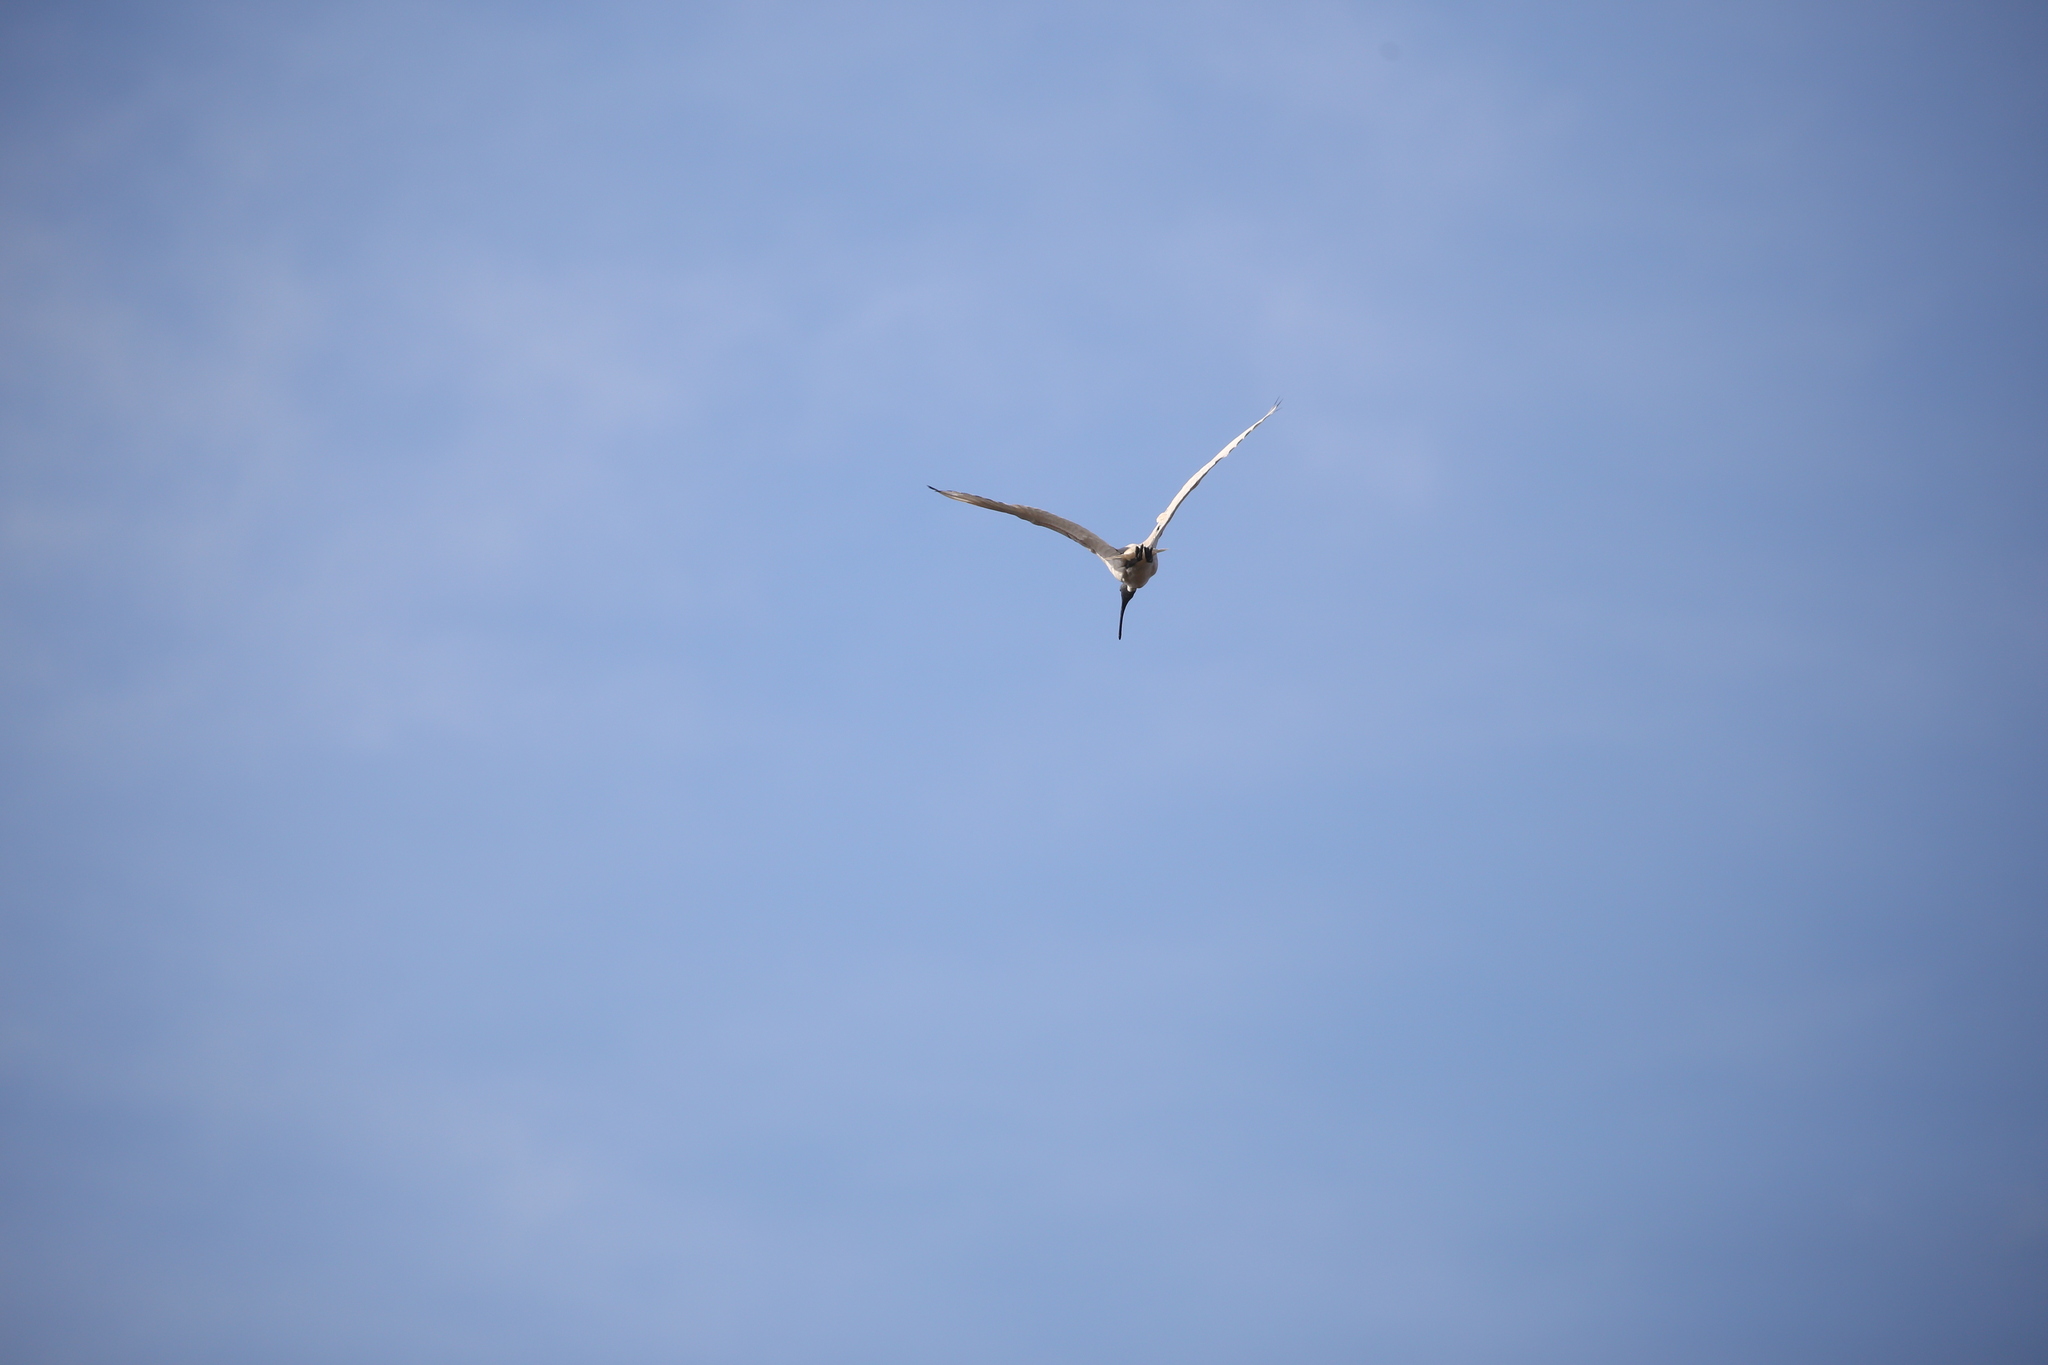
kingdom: Animalia
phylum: Chordata
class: Aves
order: Pelecaniformes
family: Threskiornithidae
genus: Threskiornis
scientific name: Threskiornis molucca
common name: Australian white ibis
